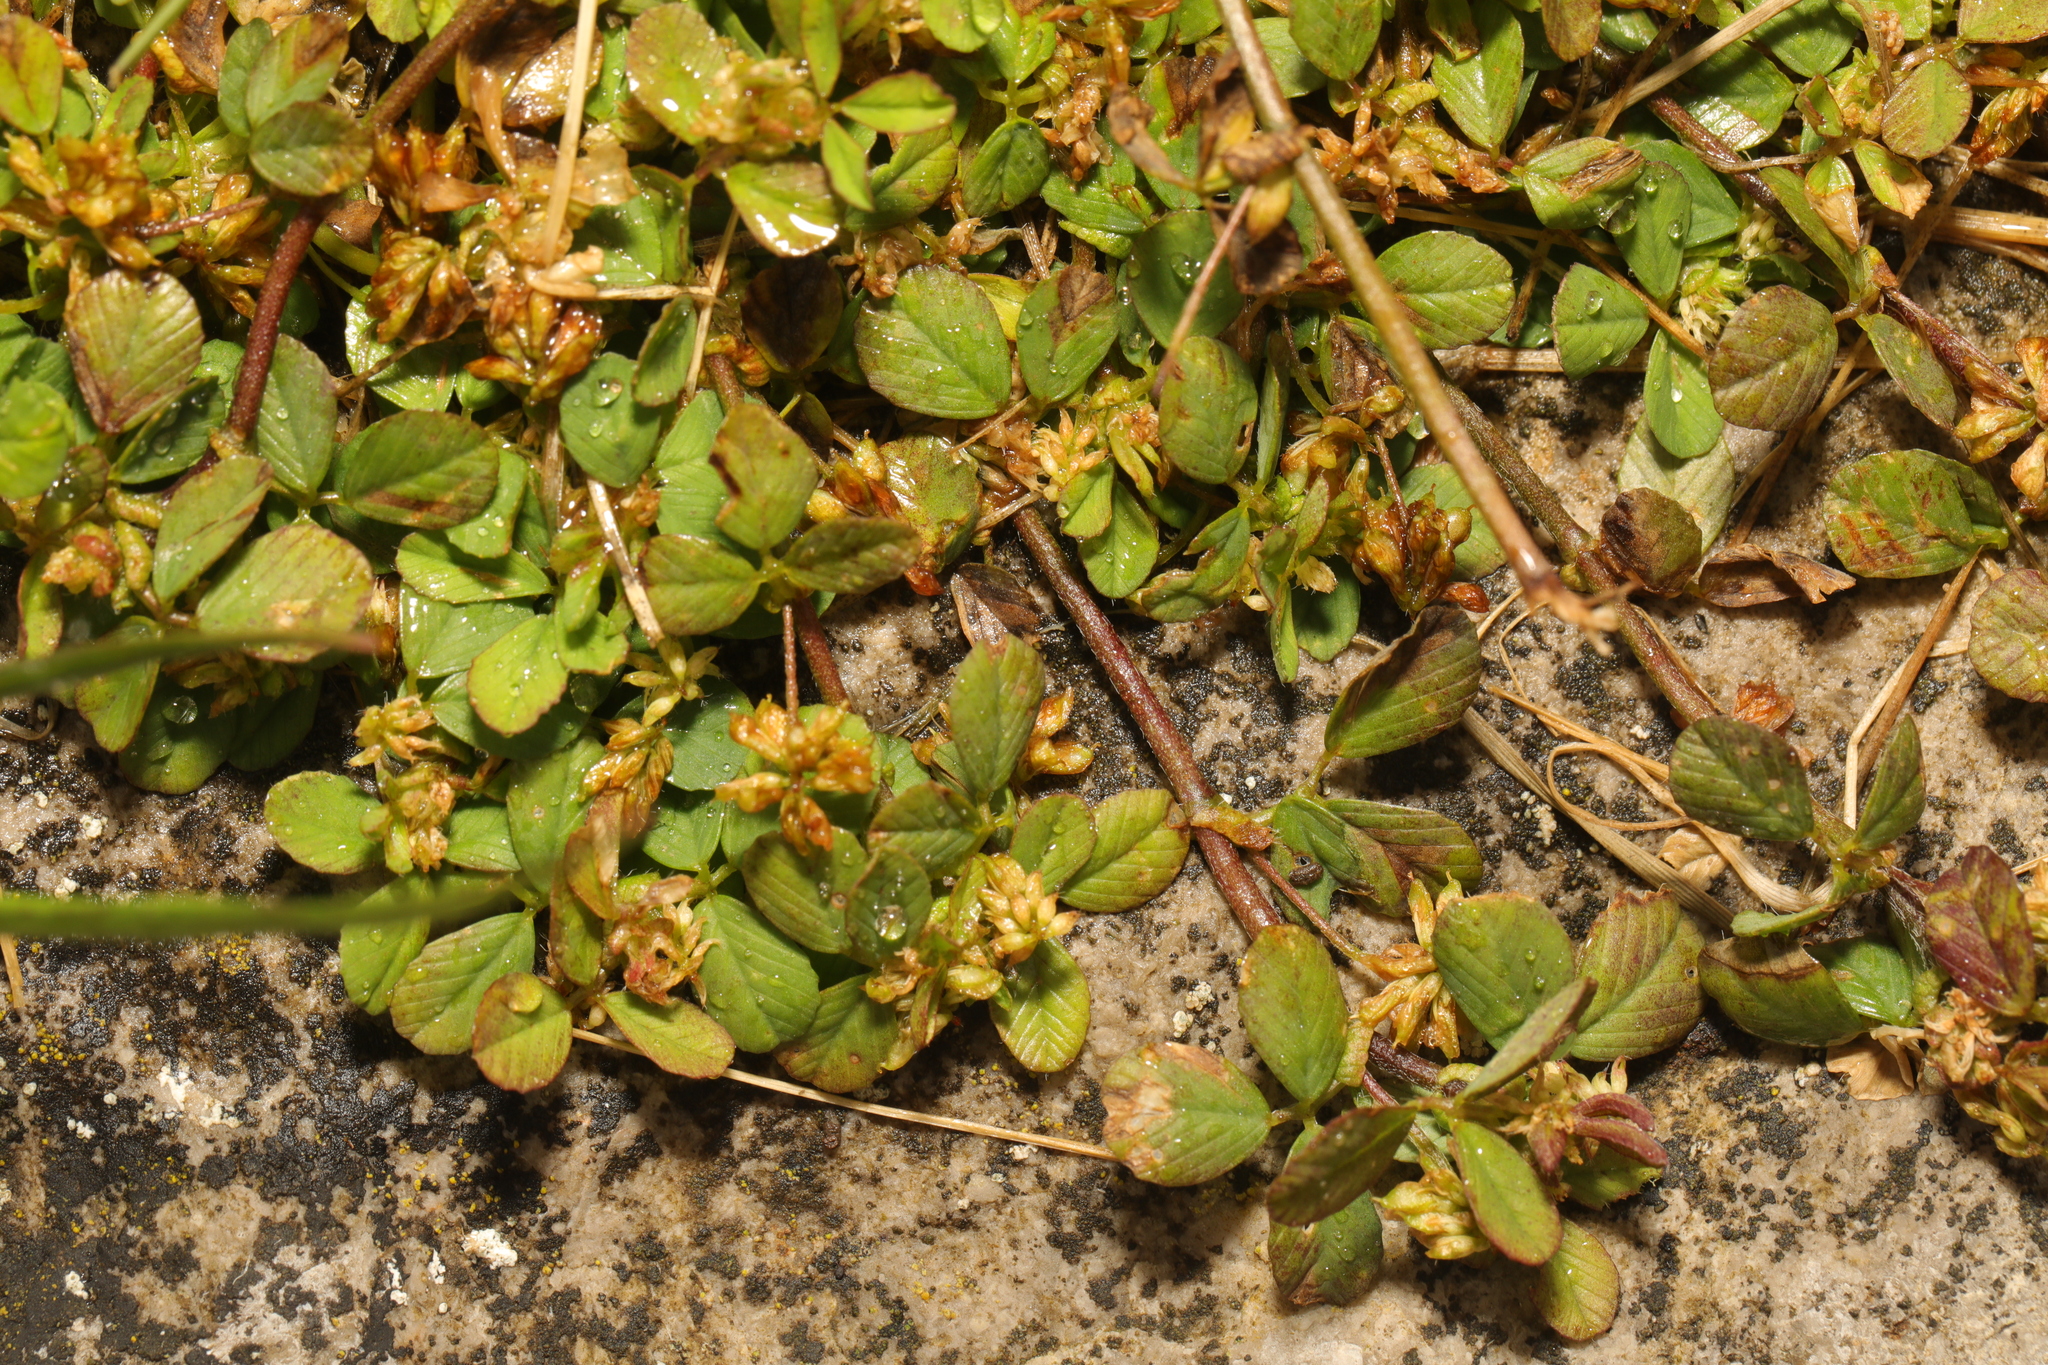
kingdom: Plantae
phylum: Tracheophyta
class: Magnoliopsida
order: Fabales
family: Fabaceae
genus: Trifolium
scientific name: Trifolium dubium
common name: Suckling clover
